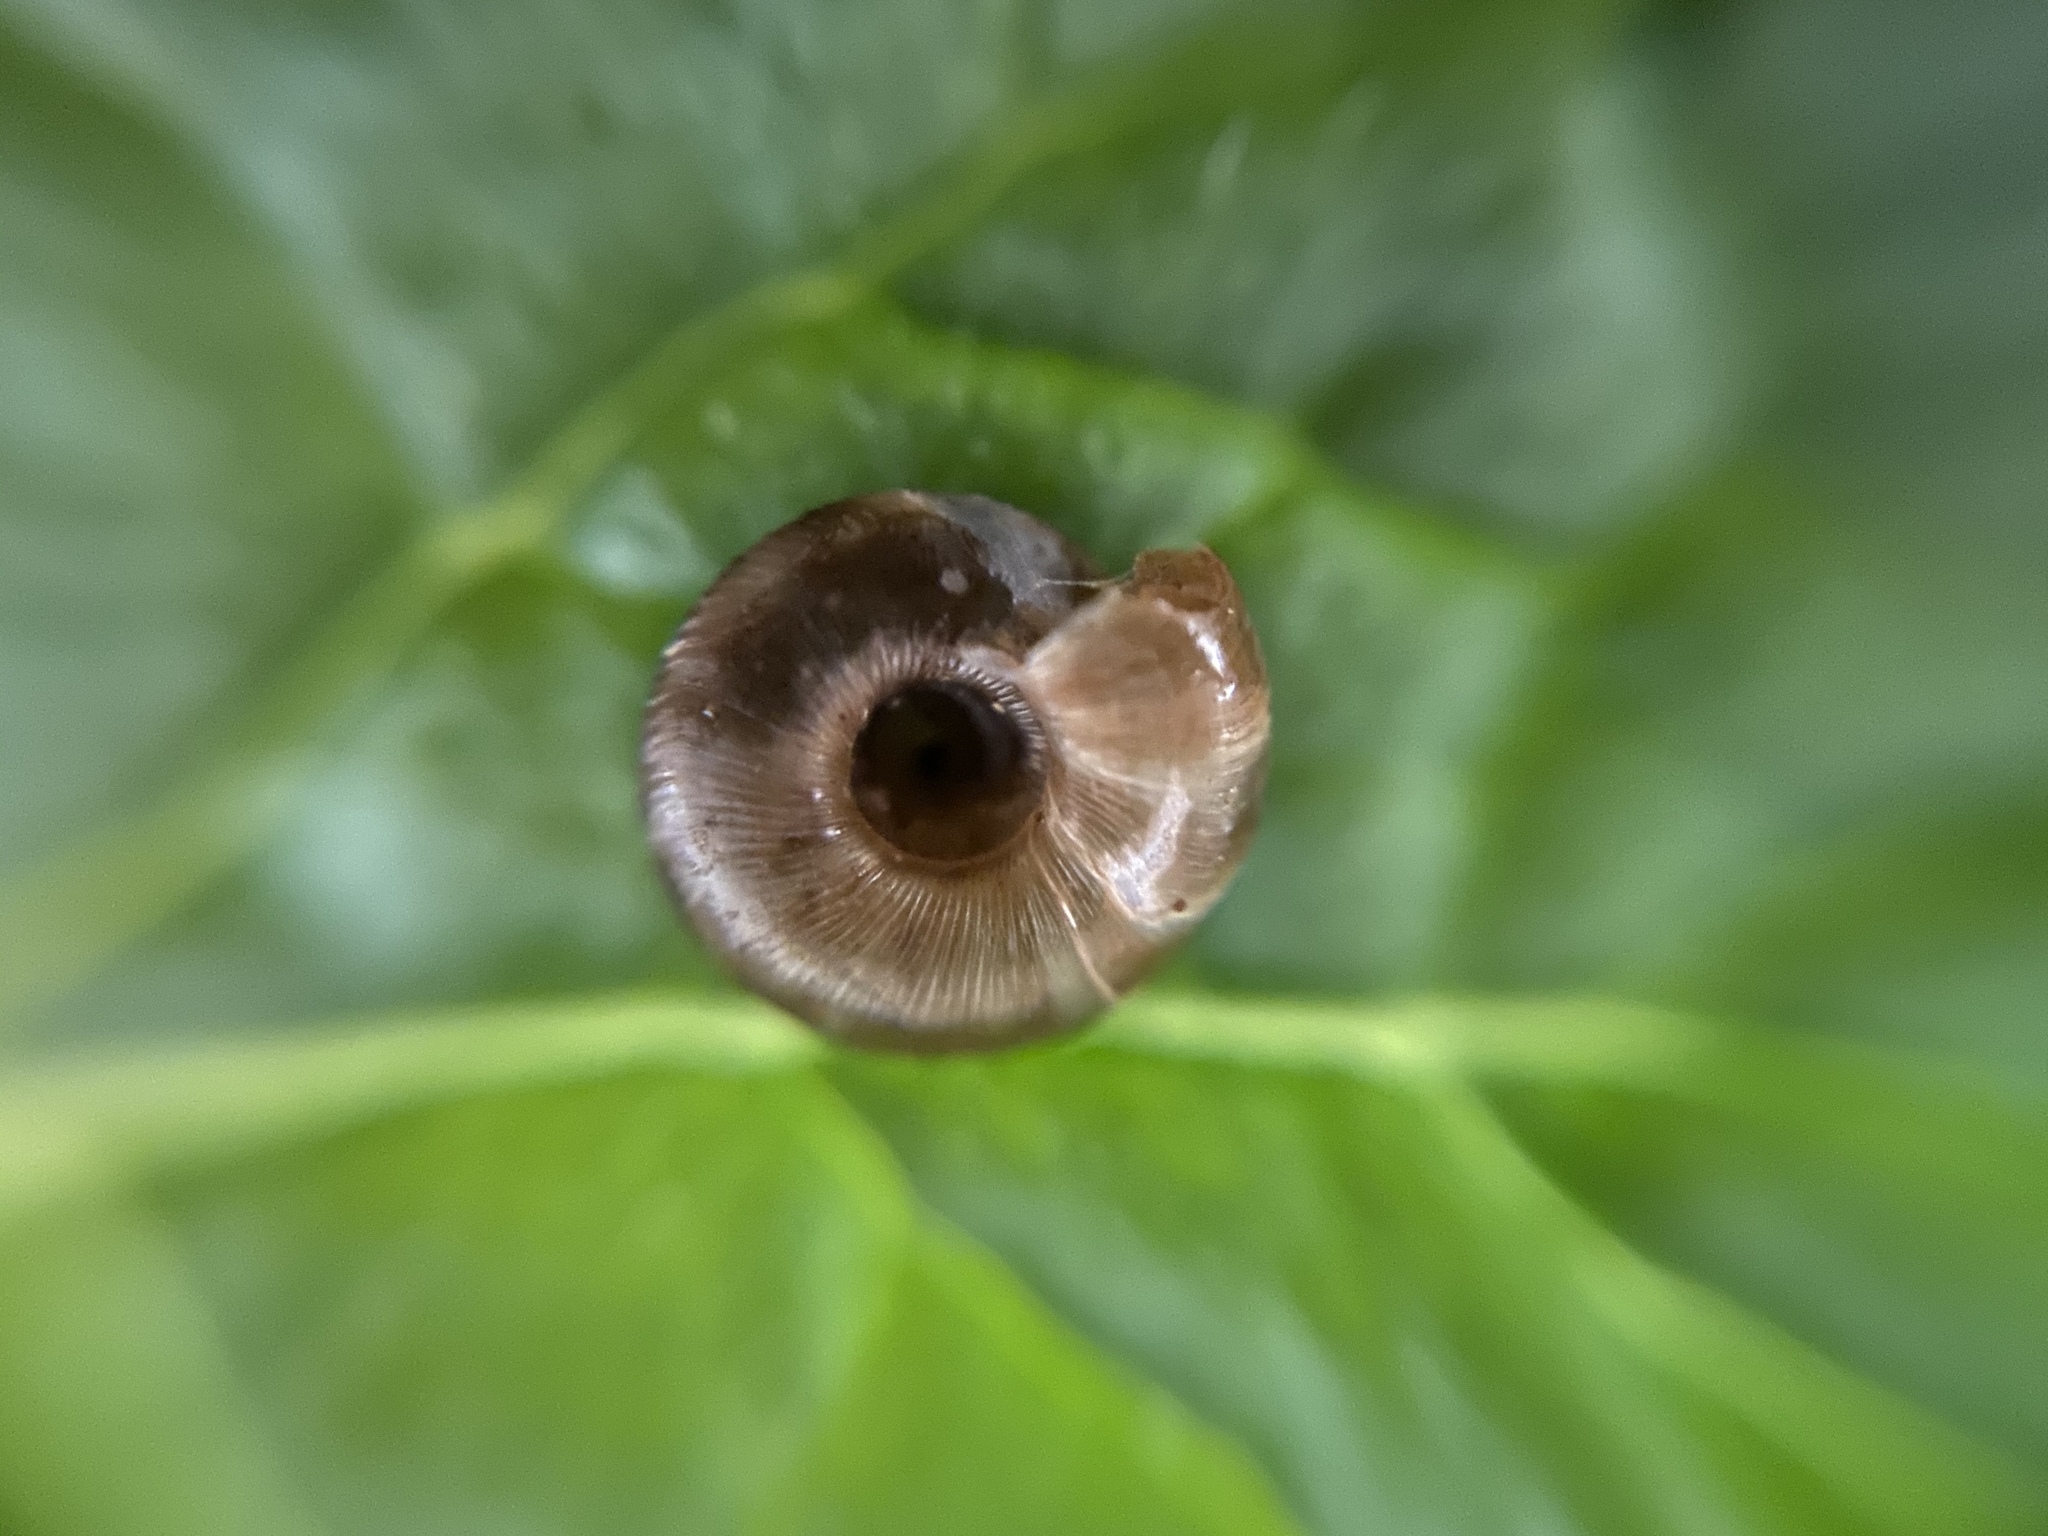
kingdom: Animalia
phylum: Mollusca
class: Gastropoda
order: Stylommatophora
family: Discidae
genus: Discus
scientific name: Discus rotundatus
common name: Rounded snail
